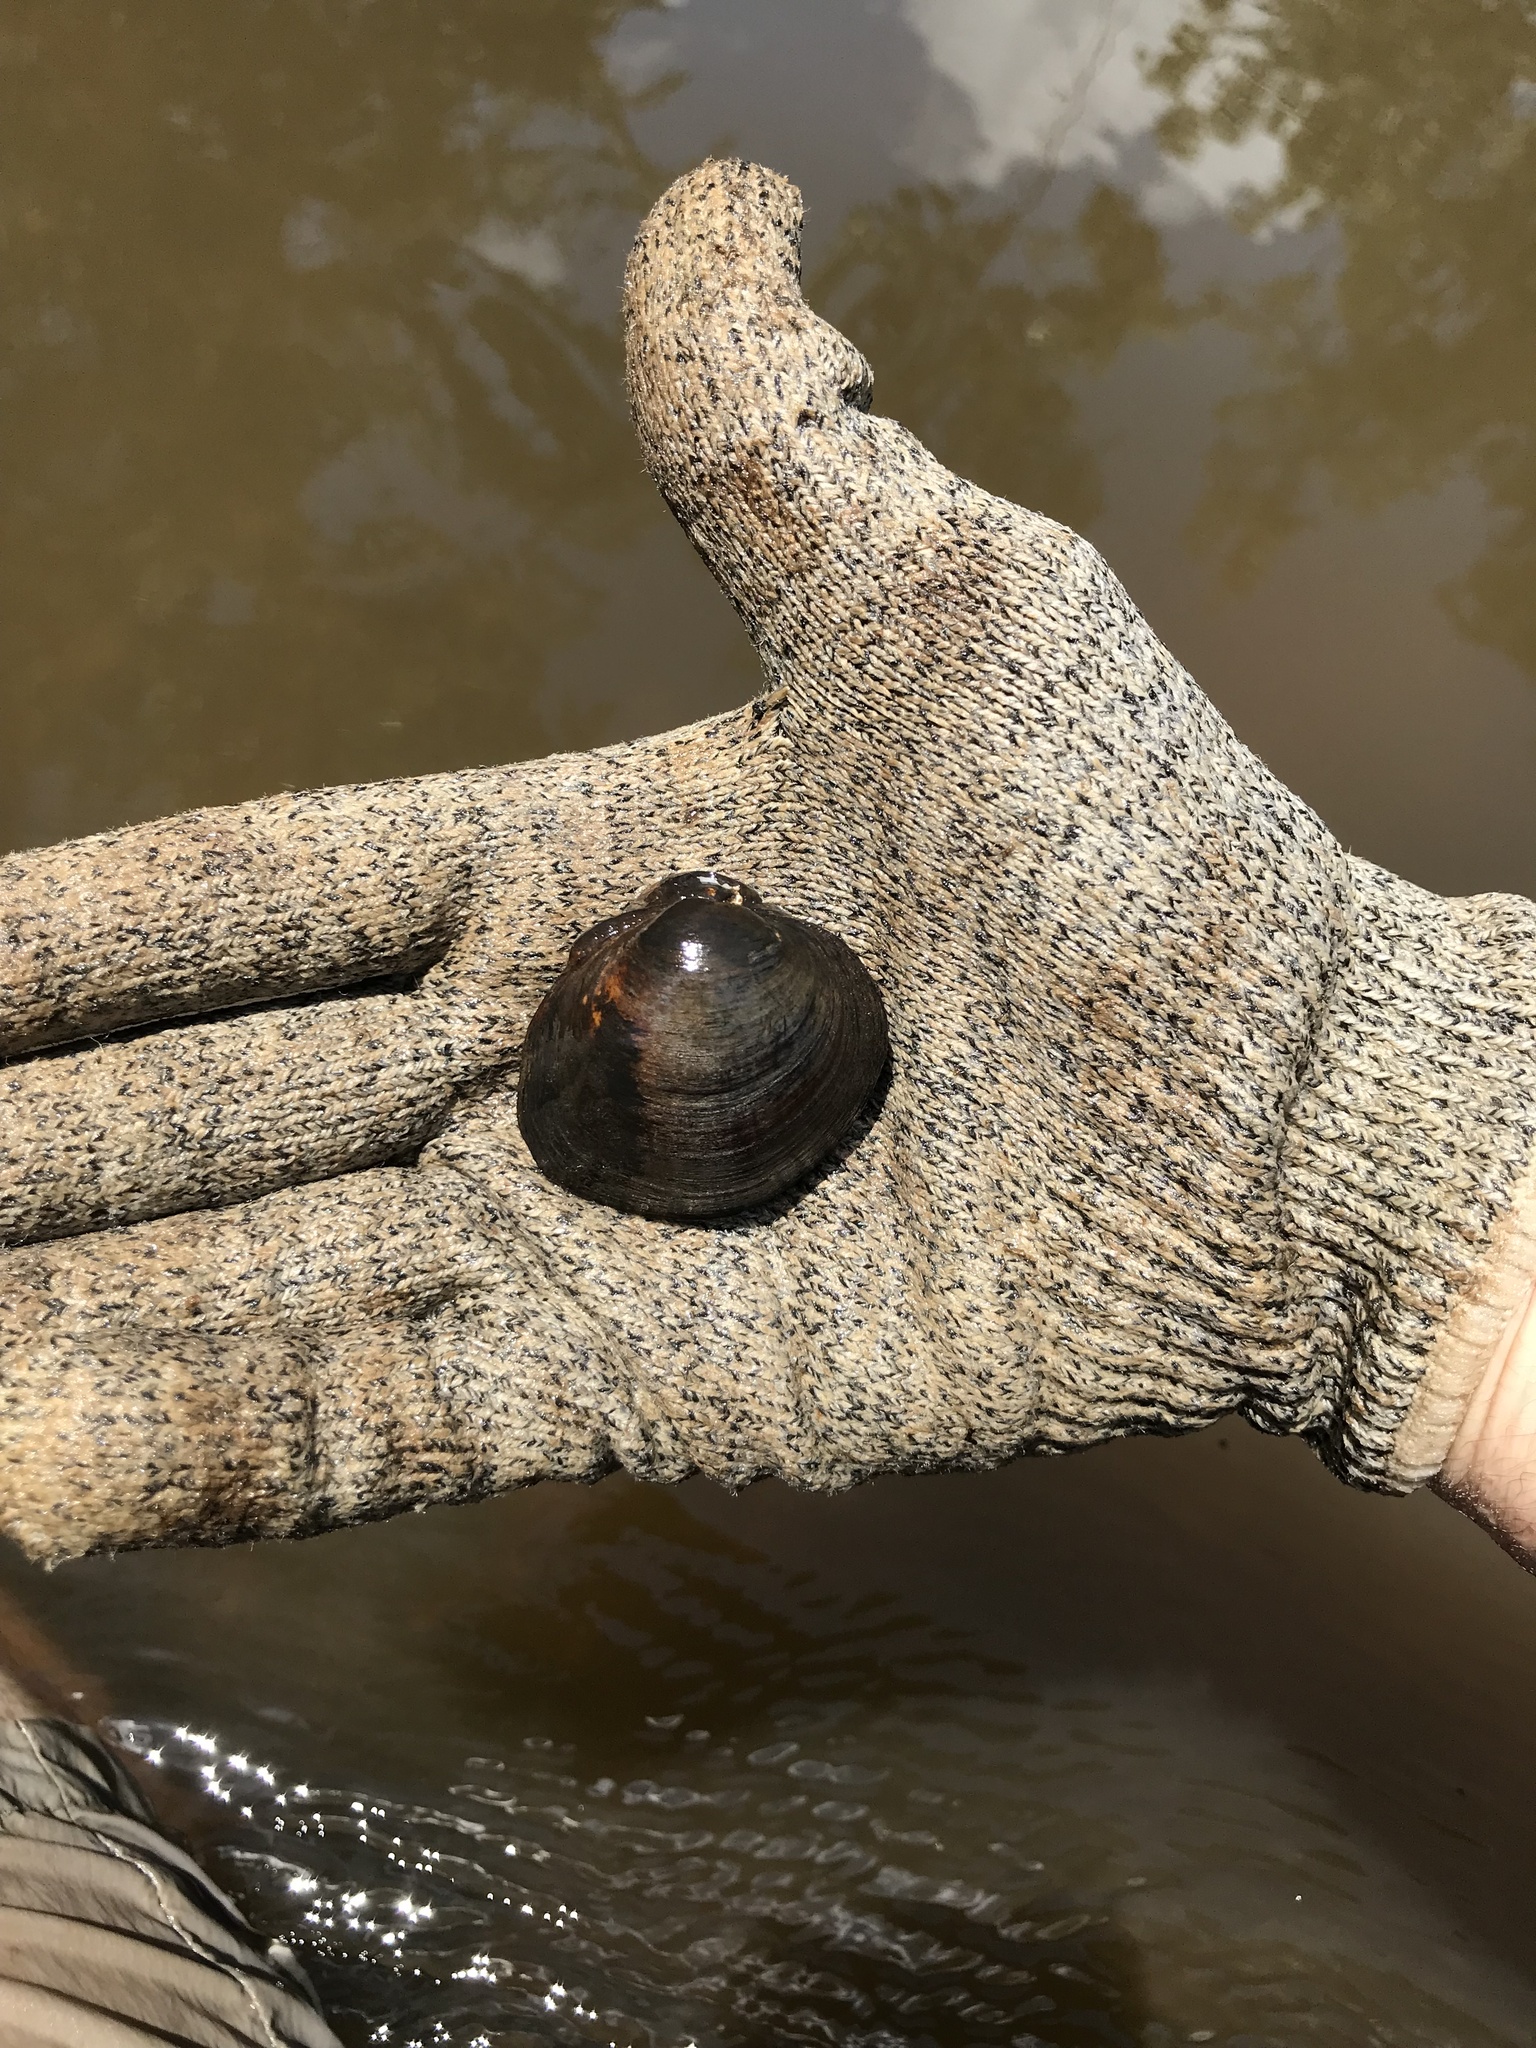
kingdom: Animalia
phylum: Mollusca
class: Bivalvia
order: Unionida
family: Unionidae
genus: Obovaria
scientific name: Obovaria unicolor
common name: Alabama hickorynut
